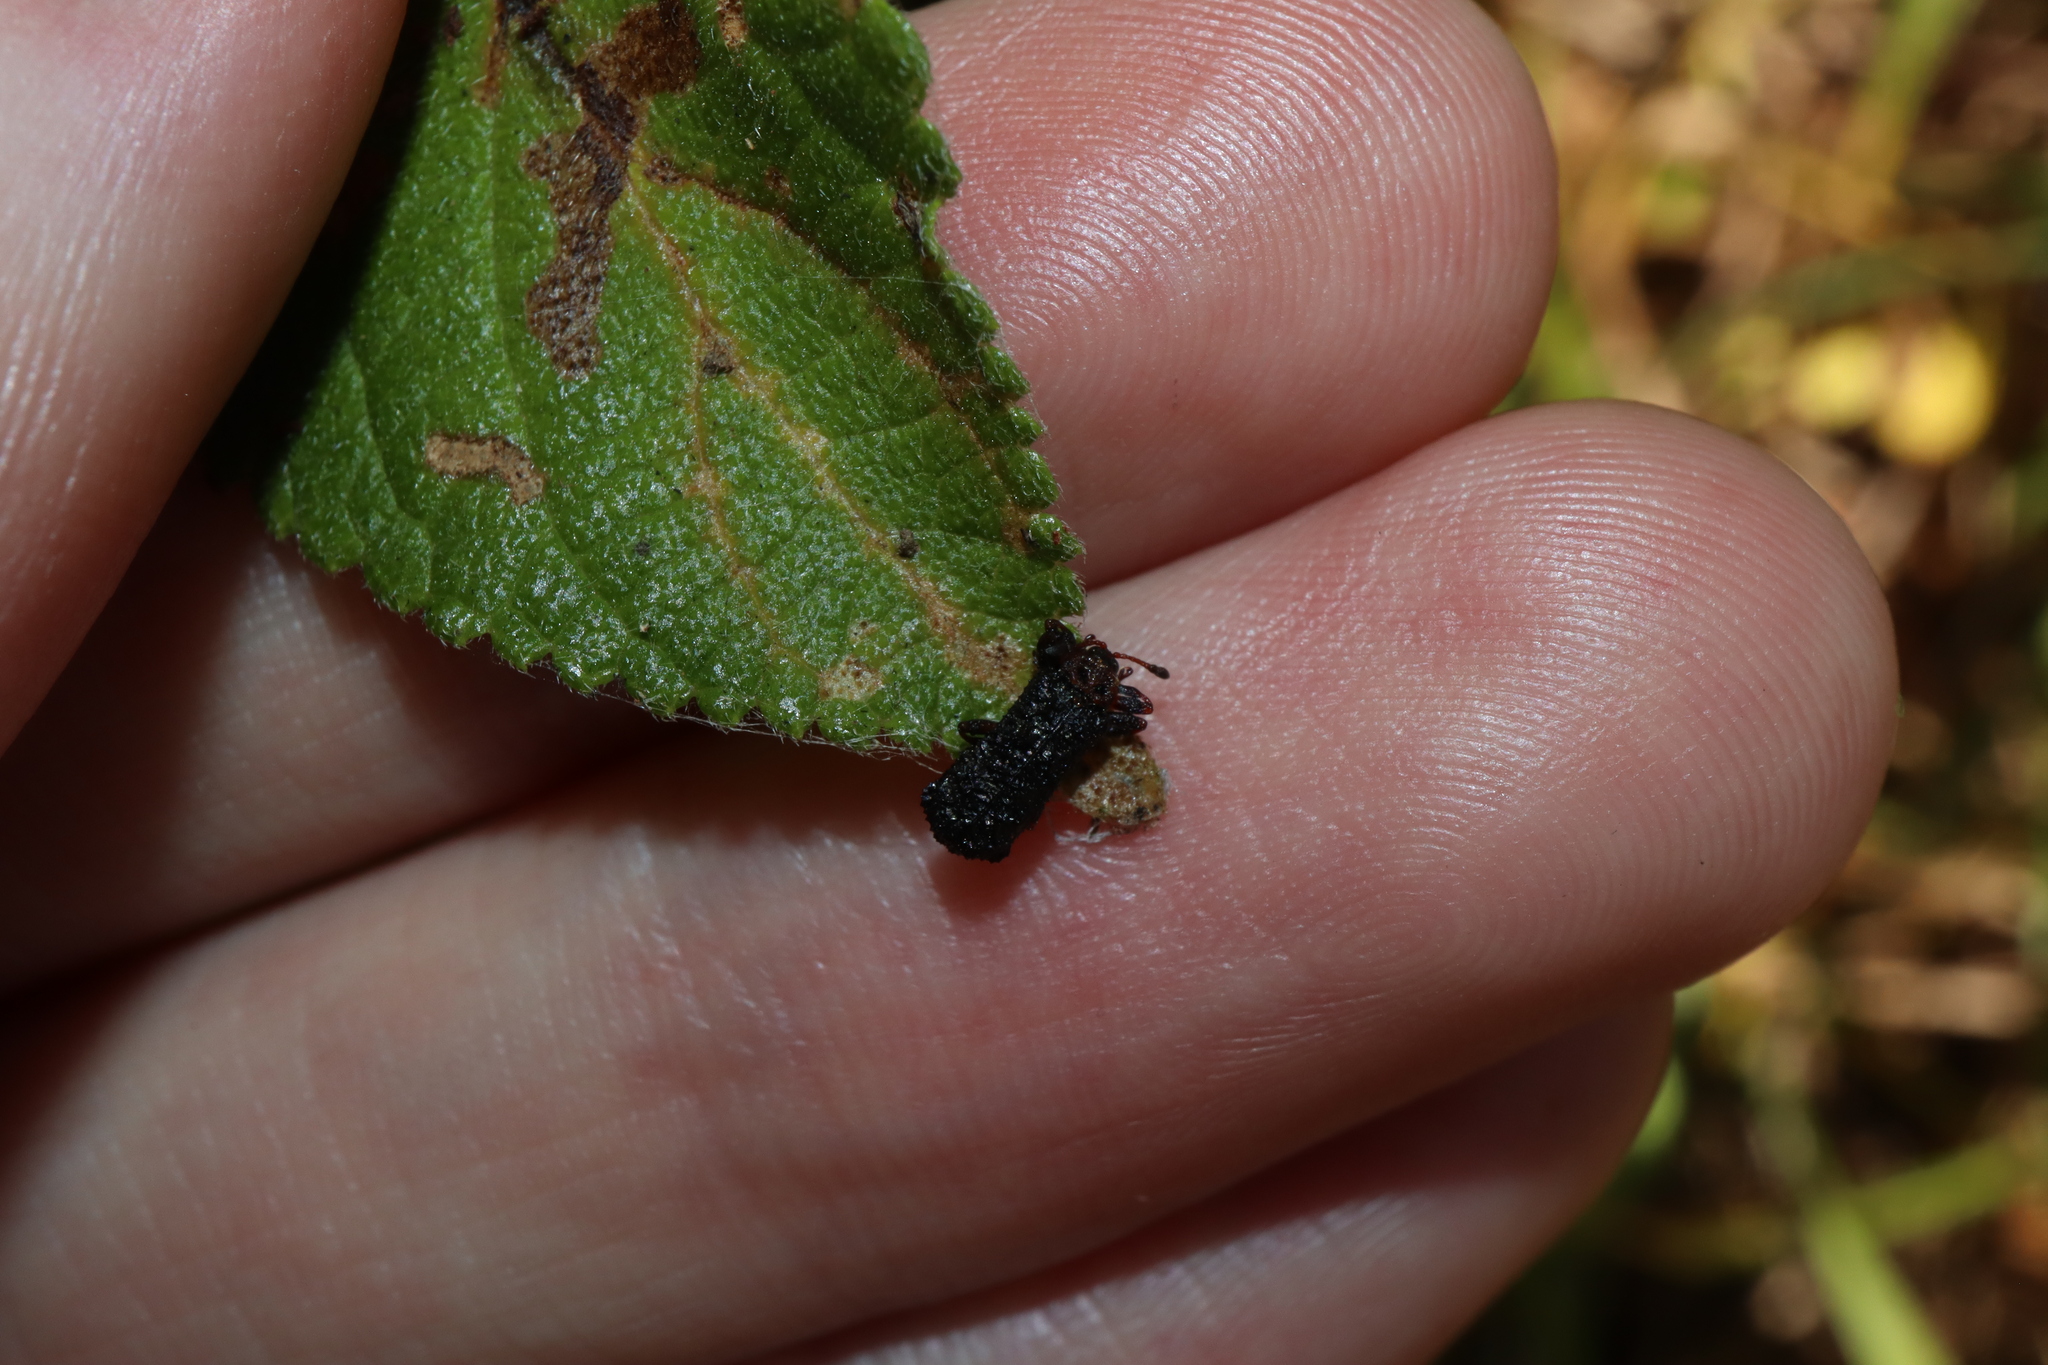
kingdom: Animalia
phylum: Arthropoda
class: Insecta
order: Coleoptera
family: Chrysomelidae
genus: Octotoma
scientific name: Octotoma scabripennis
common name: Beetle
